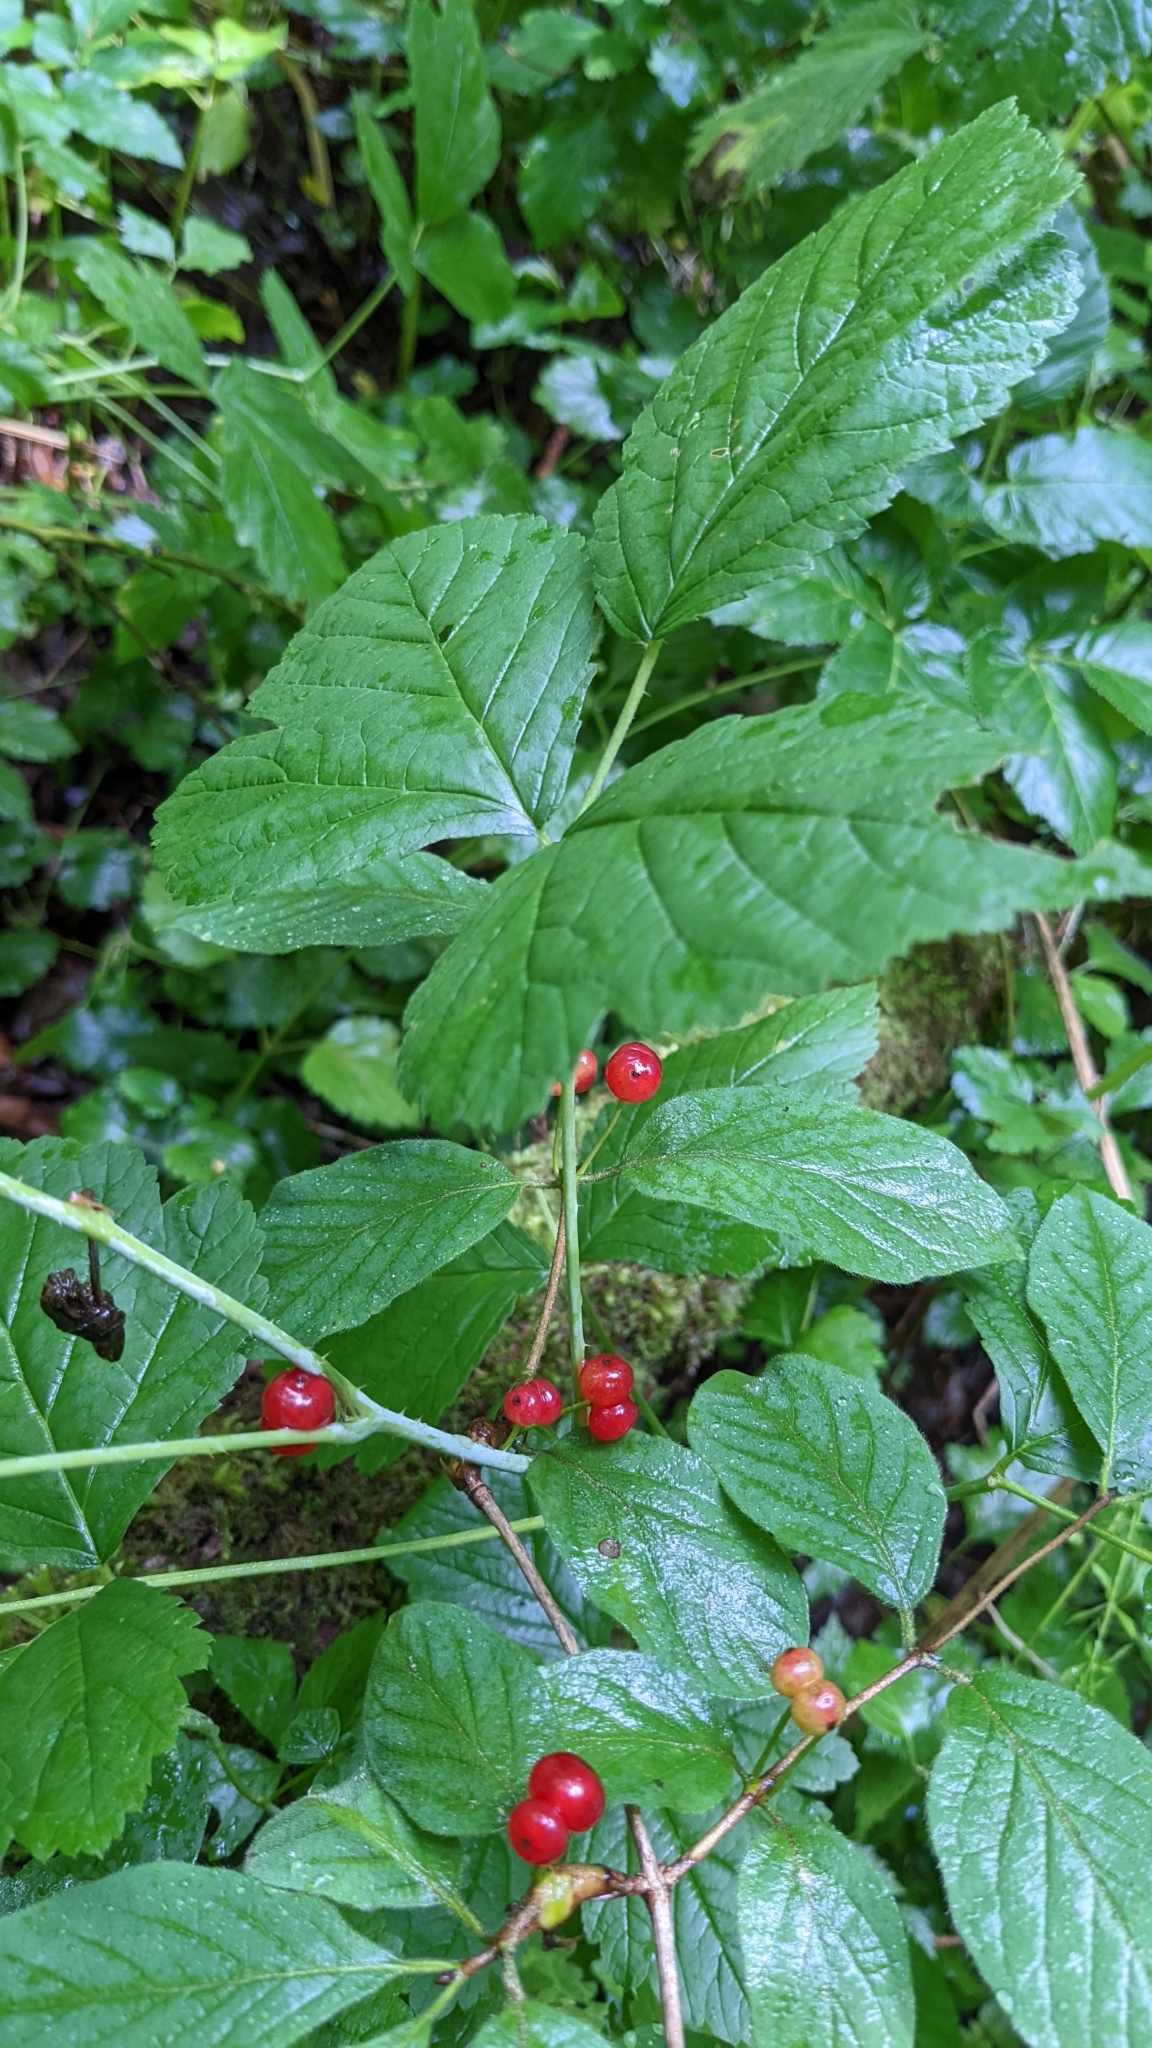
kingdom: Plantae
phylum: Tracheophyta
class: Magnoliopsida
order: Dipsacales
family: Caprifoliaceae
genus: Lonicera
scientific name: Lonicera xylosteum
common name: Fly honeysuckle
